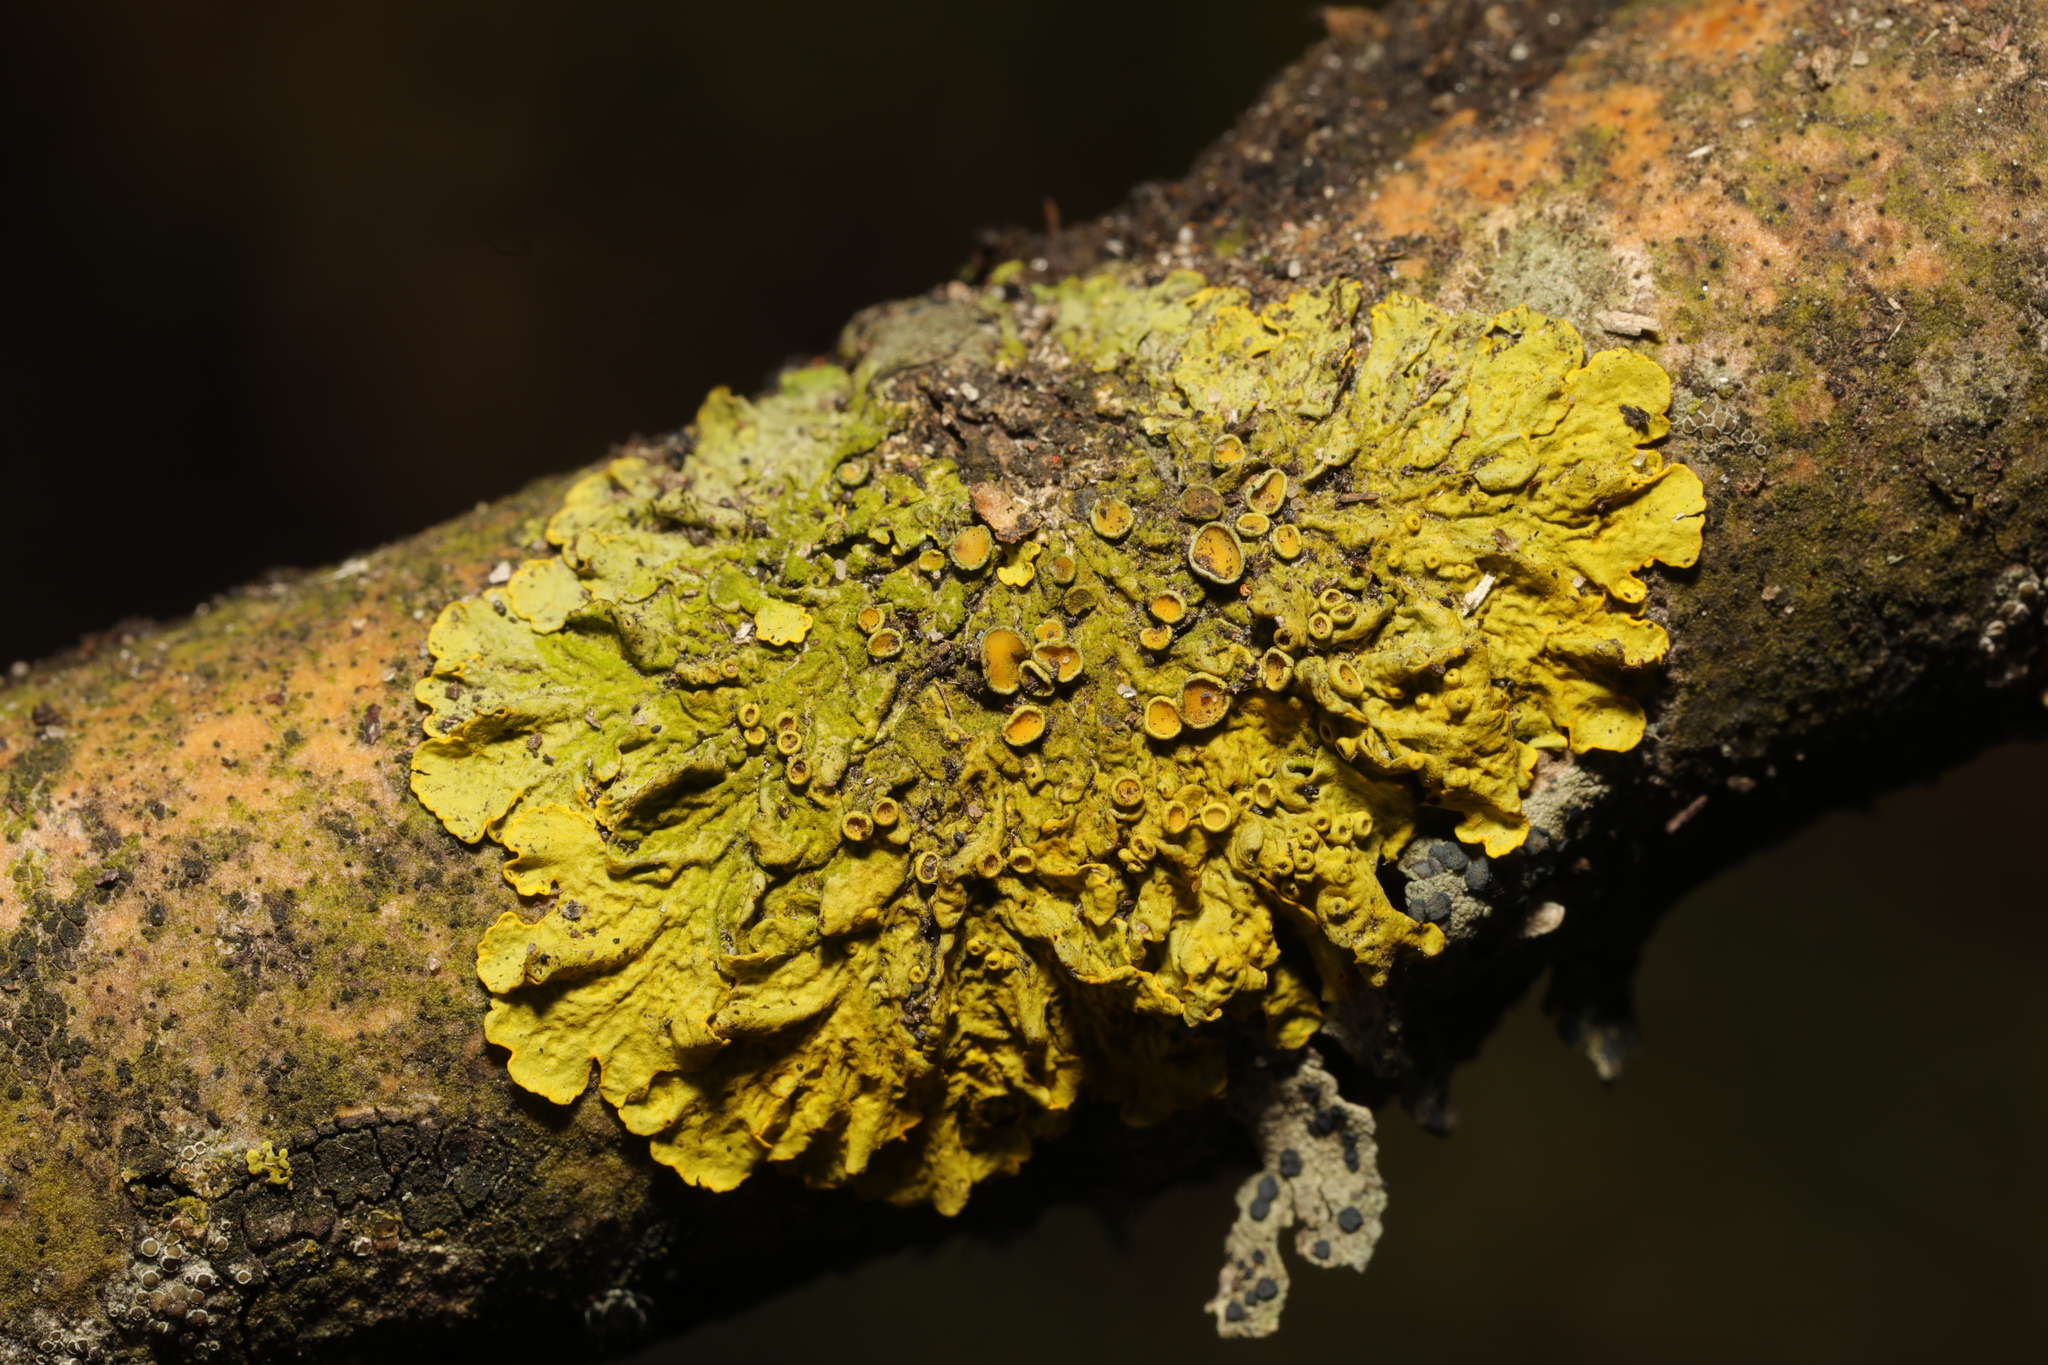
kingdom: Fungi
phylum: Ascomycota
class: Lecanoromycetes
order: Teloschistales
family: Teloschistaceae
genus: Xanthoria
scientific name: Xanthoria parietina
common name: Common orange lichen
